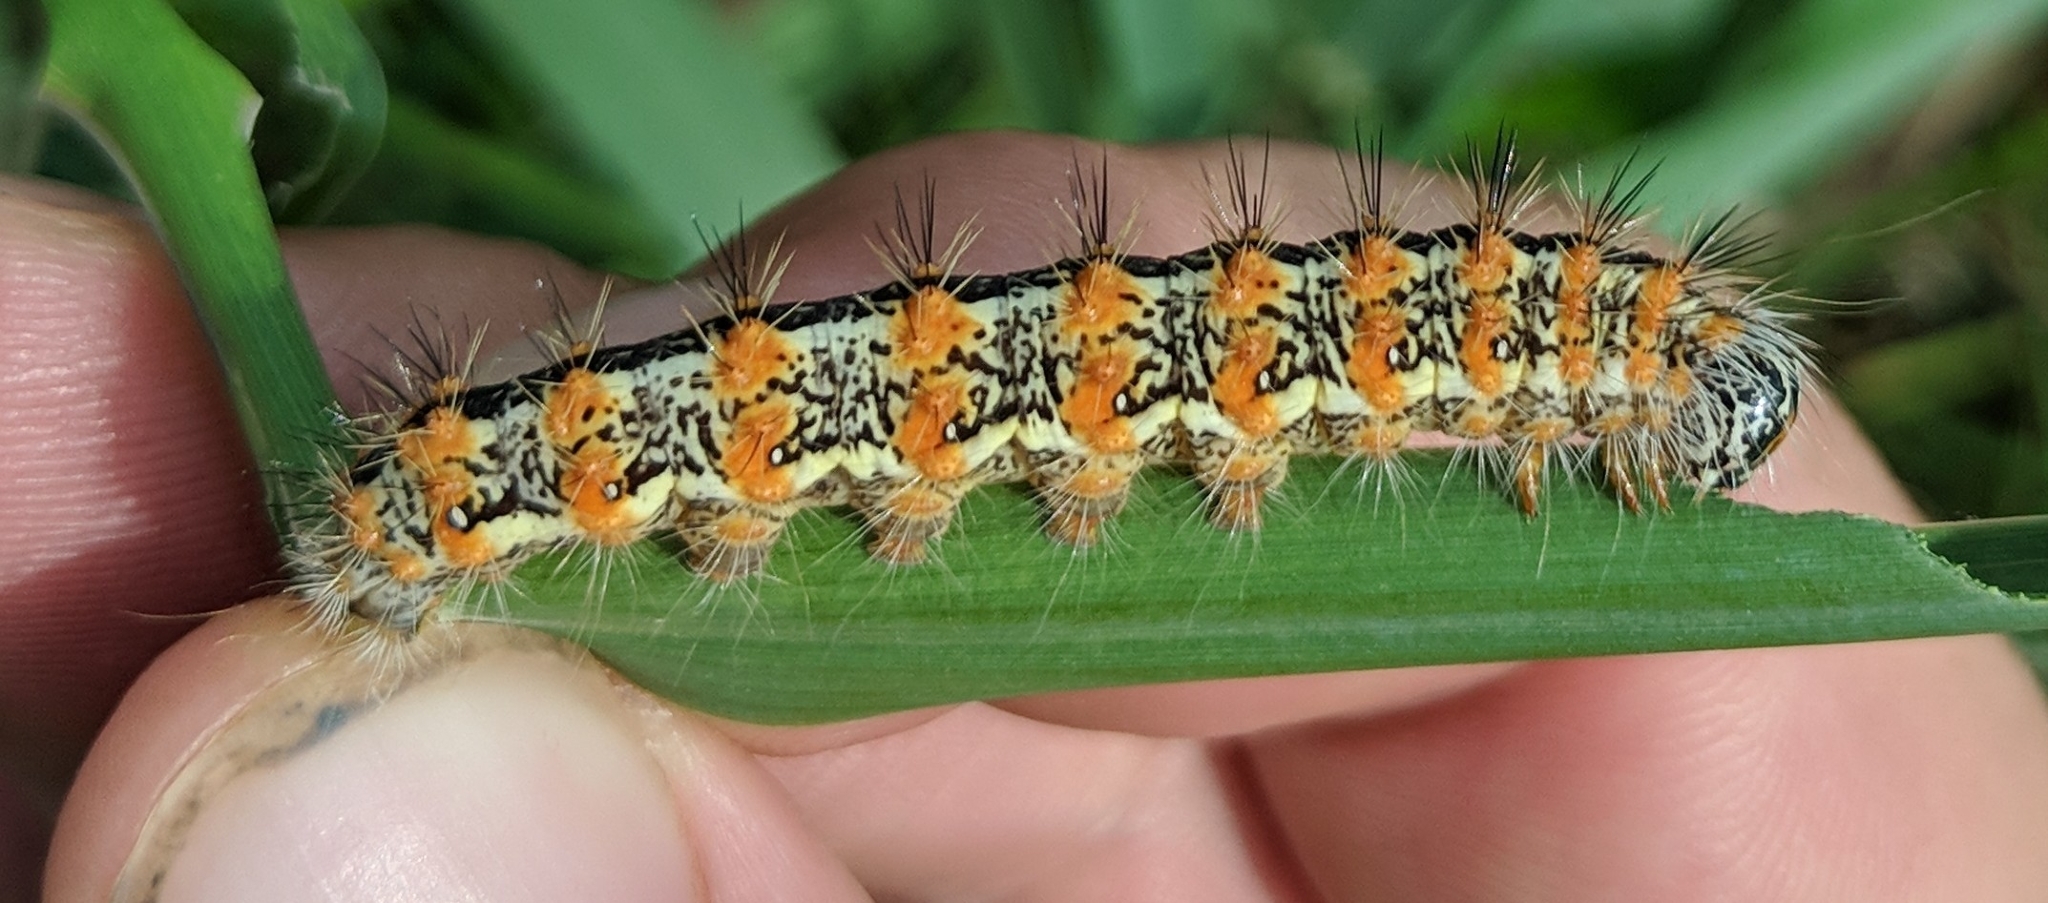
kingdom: Animalia
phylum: Arthropoda
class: Insecta
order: Lepidoptera
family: Noctuidae
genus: Acronicta
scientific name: Acronicta insularis
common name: Henry's marsh moth
